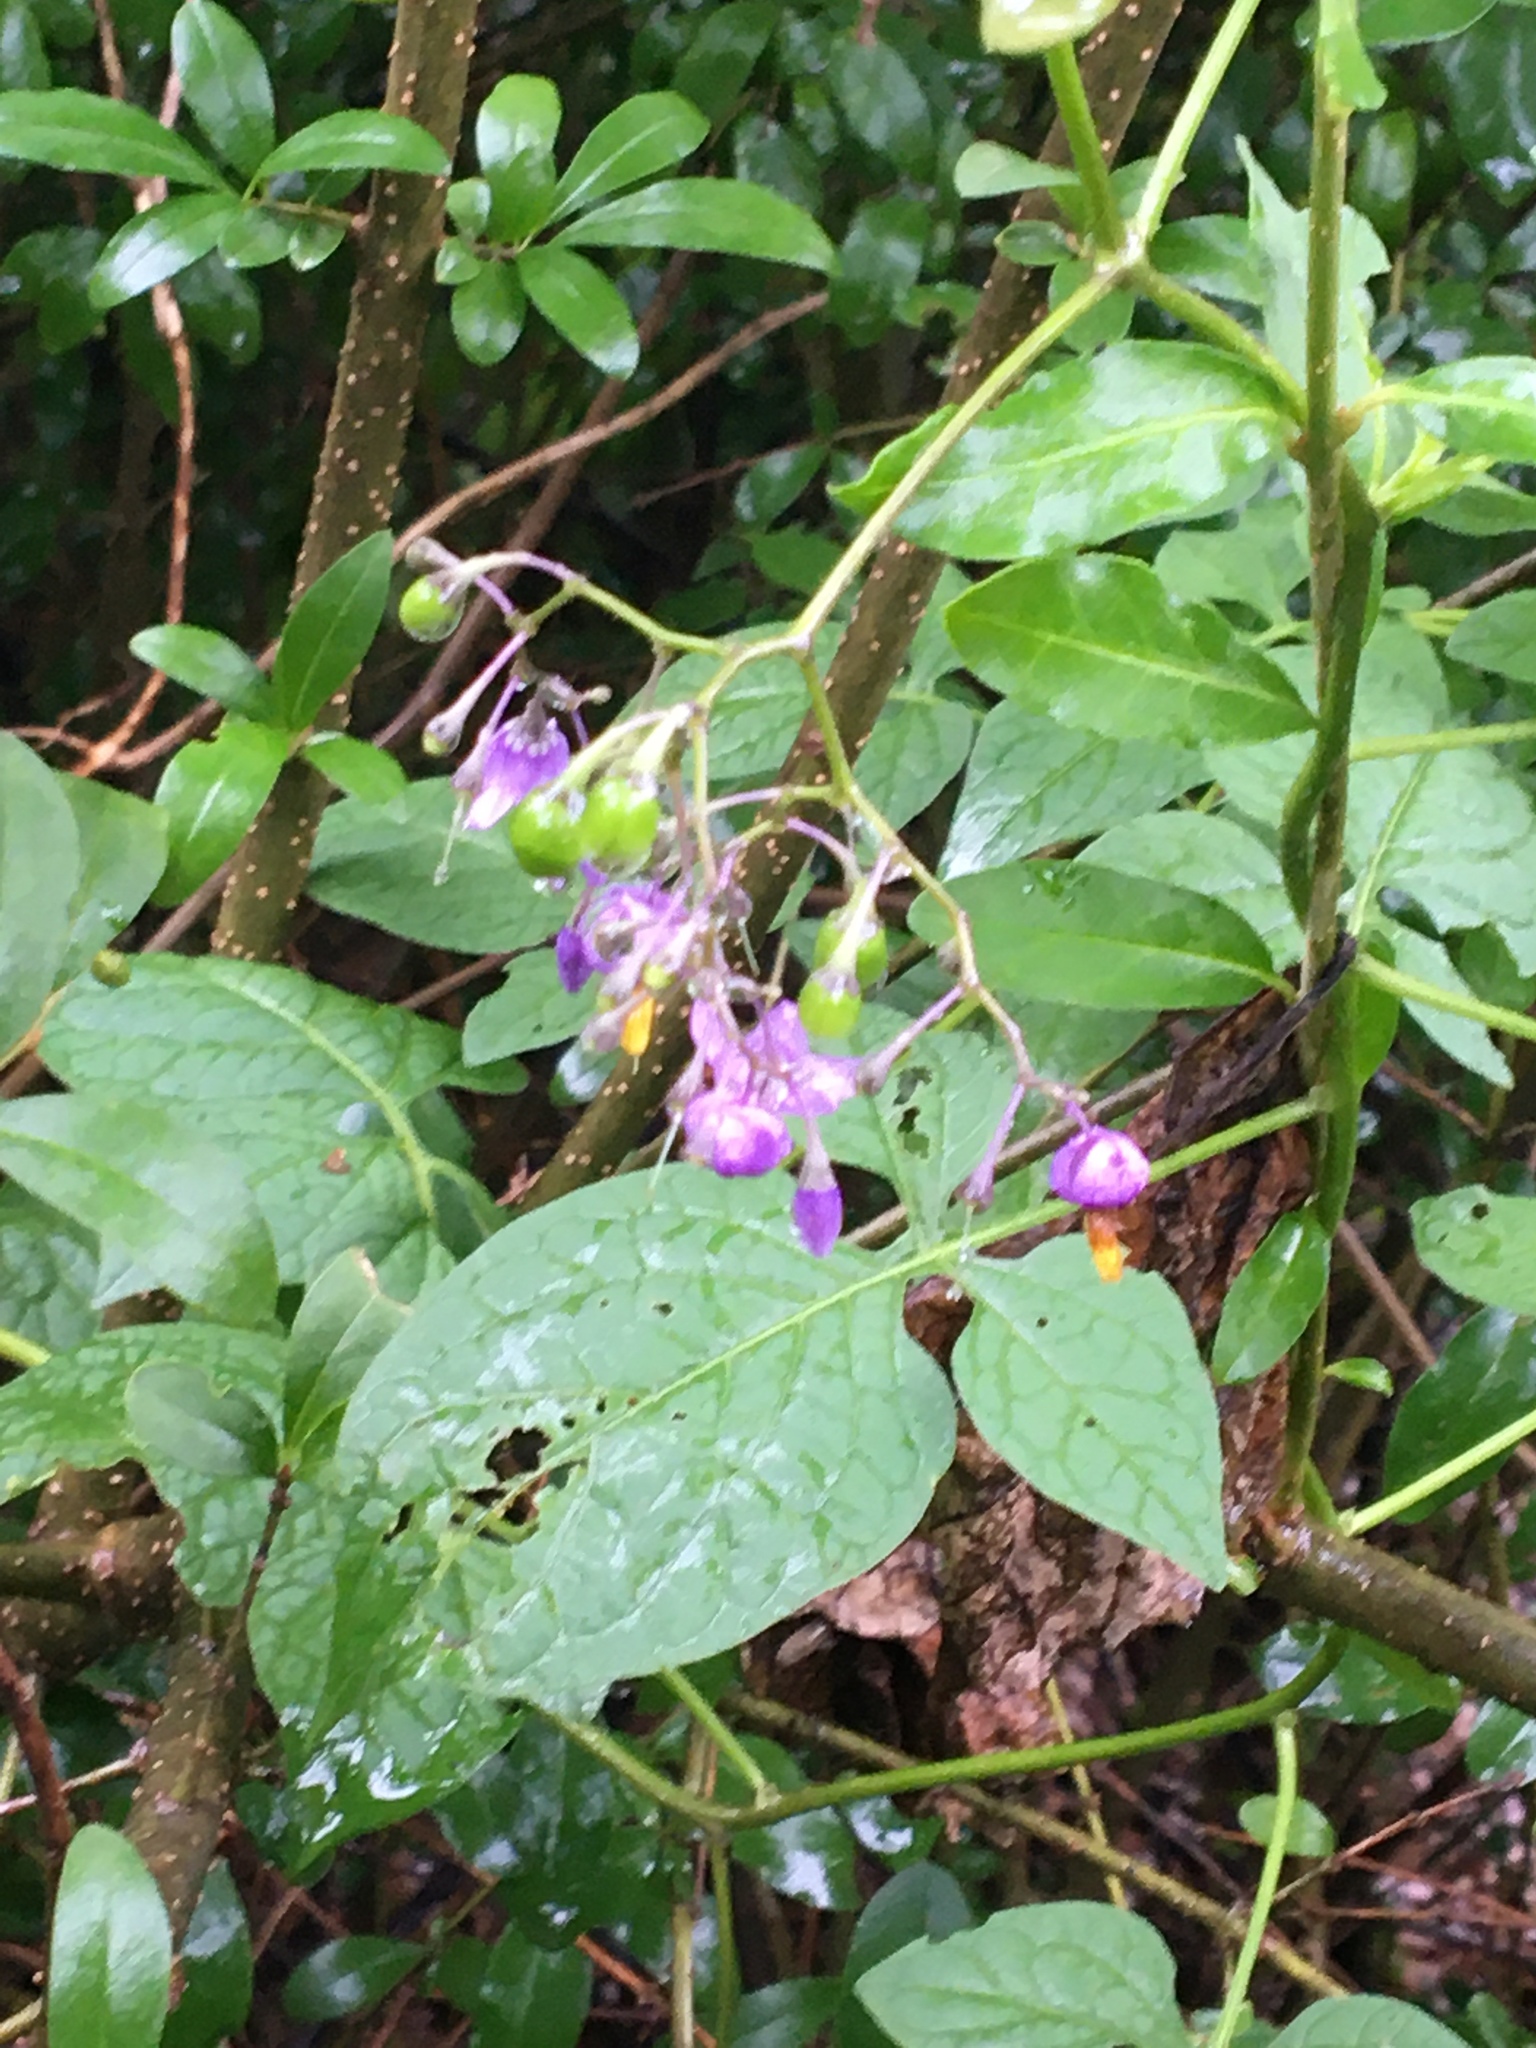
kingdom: Plantae
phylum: Tracheophyta
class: Magnoliopsida
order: Solanales
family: Solanaceae
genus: Solanum
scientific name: Solanum dulcamara
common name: Climbing nightshade
